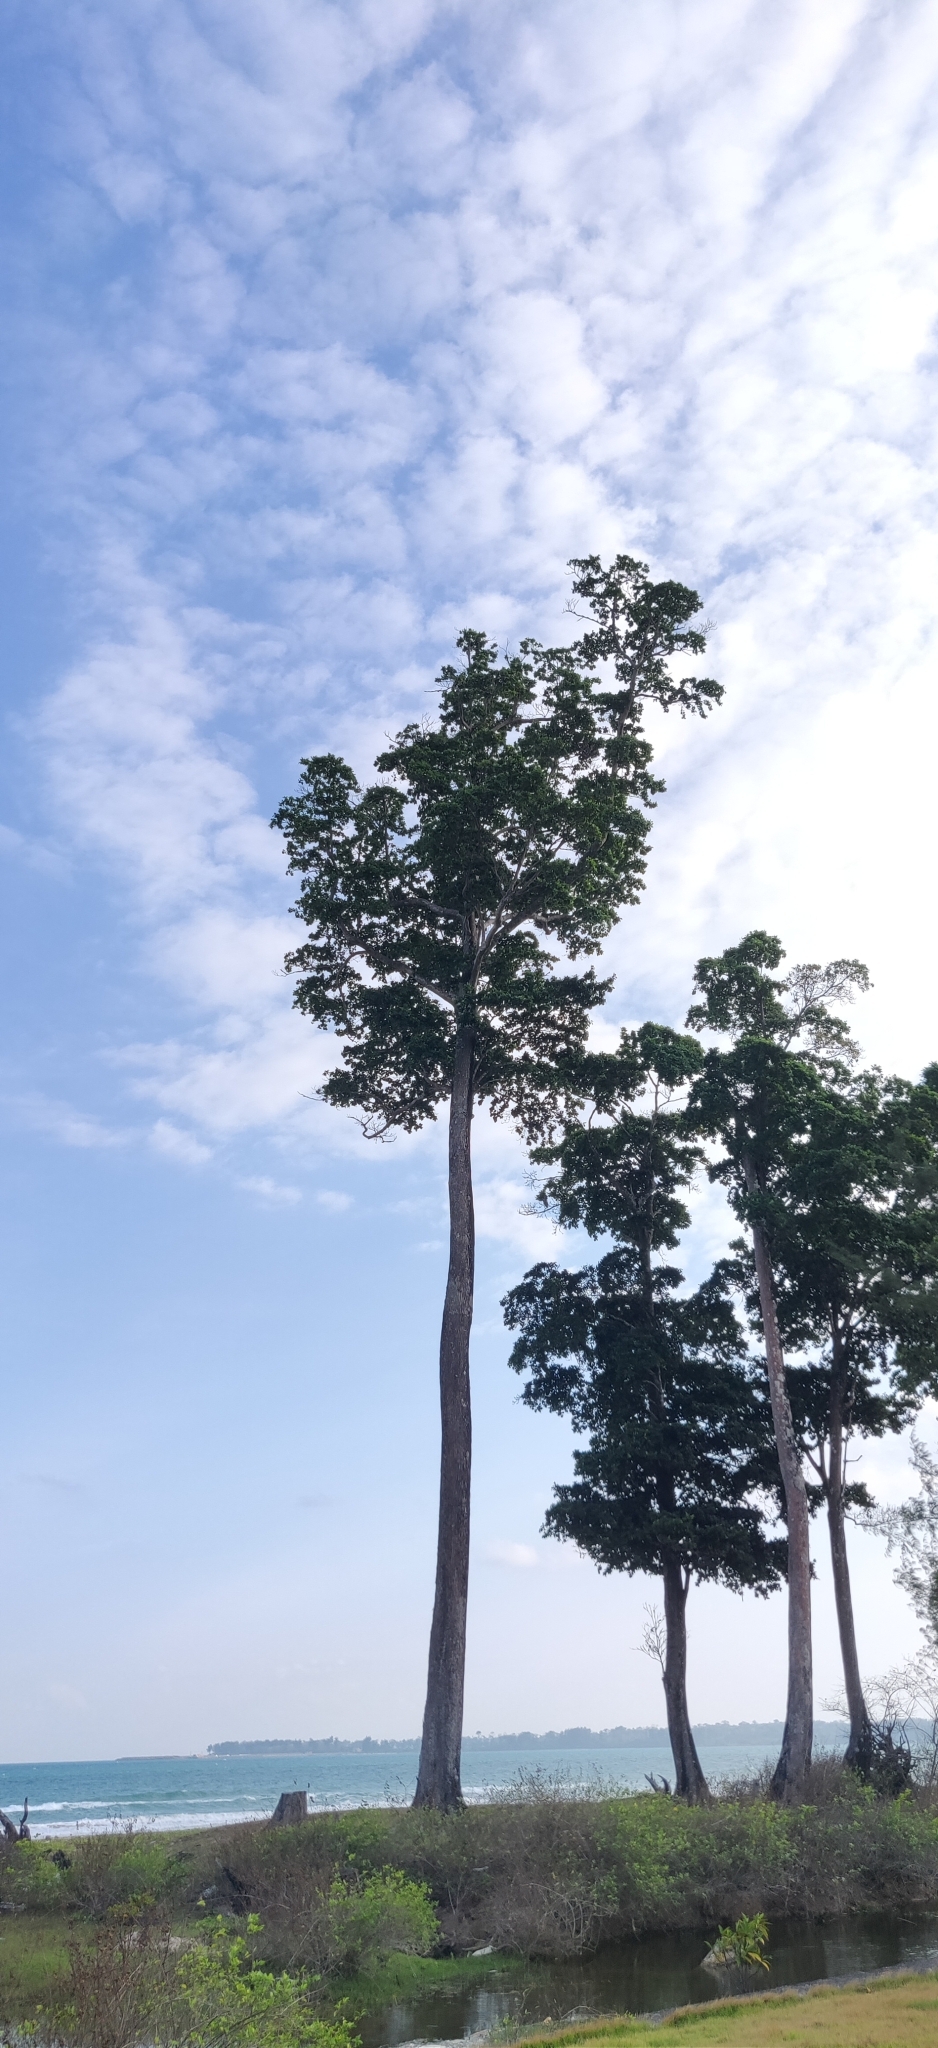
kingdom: Plantae
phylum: Tracheophyta
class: Magnoliopsida
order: Ericales
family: Sapotaceae
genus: Manilkara
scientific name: Manilkara littoralis
